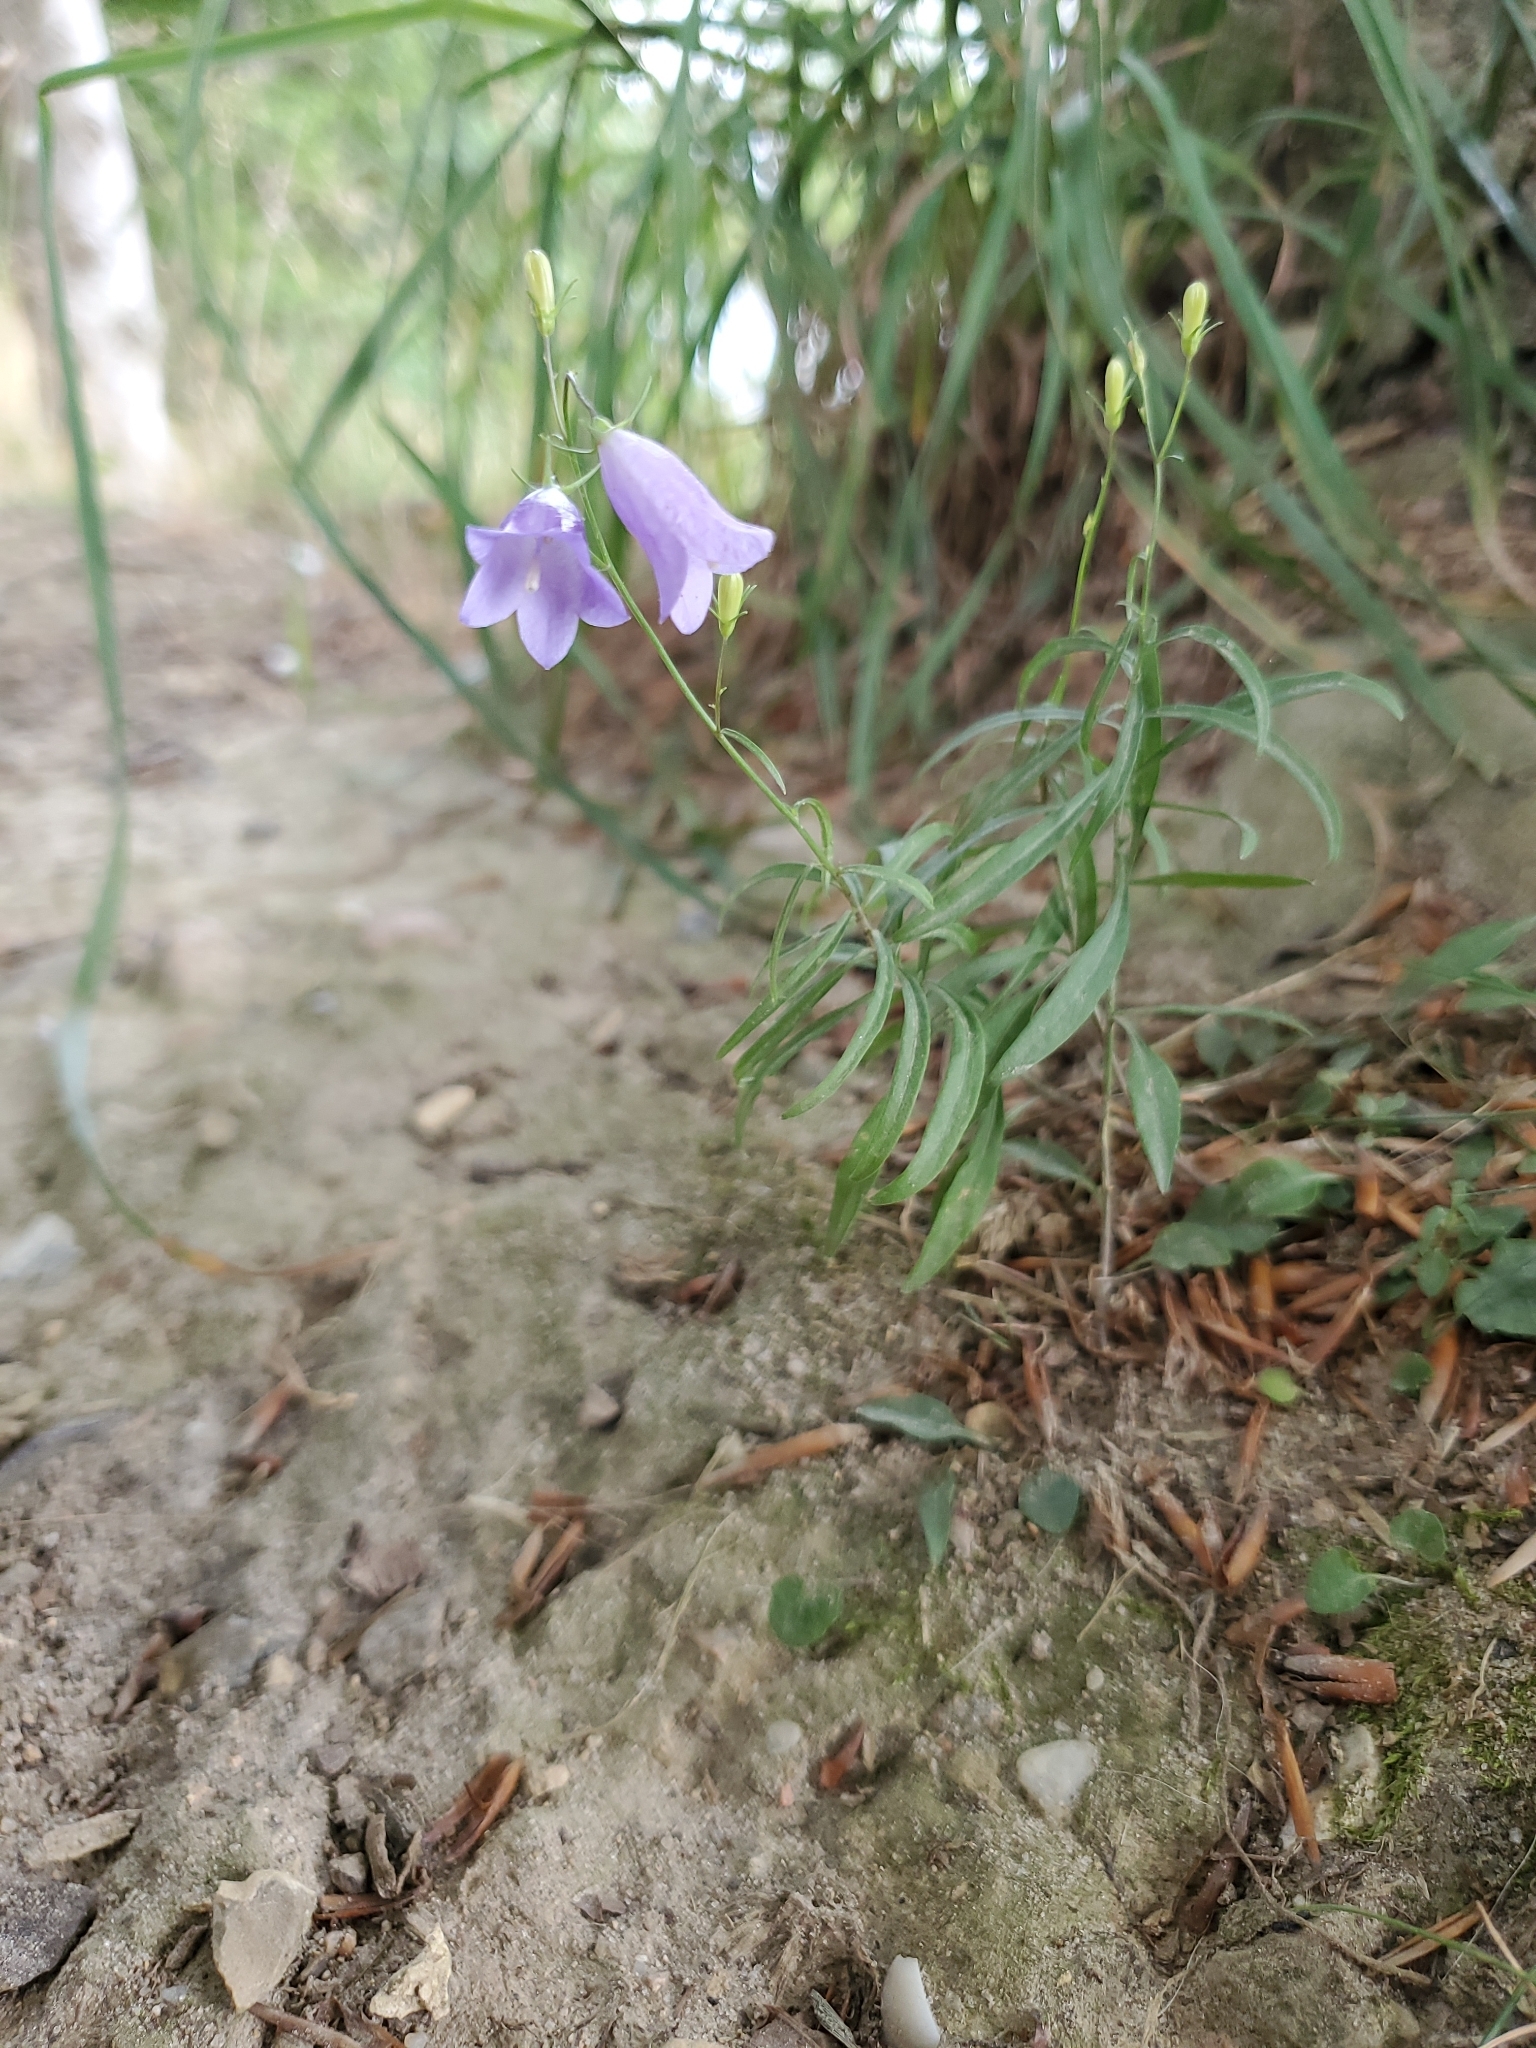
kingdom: Plantae
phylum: Tracheophyta
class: Magnoliopsida
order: Asterales
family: Campanulaceae
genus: Campanula
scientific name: Campanula rotundifolia
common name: Harebell
